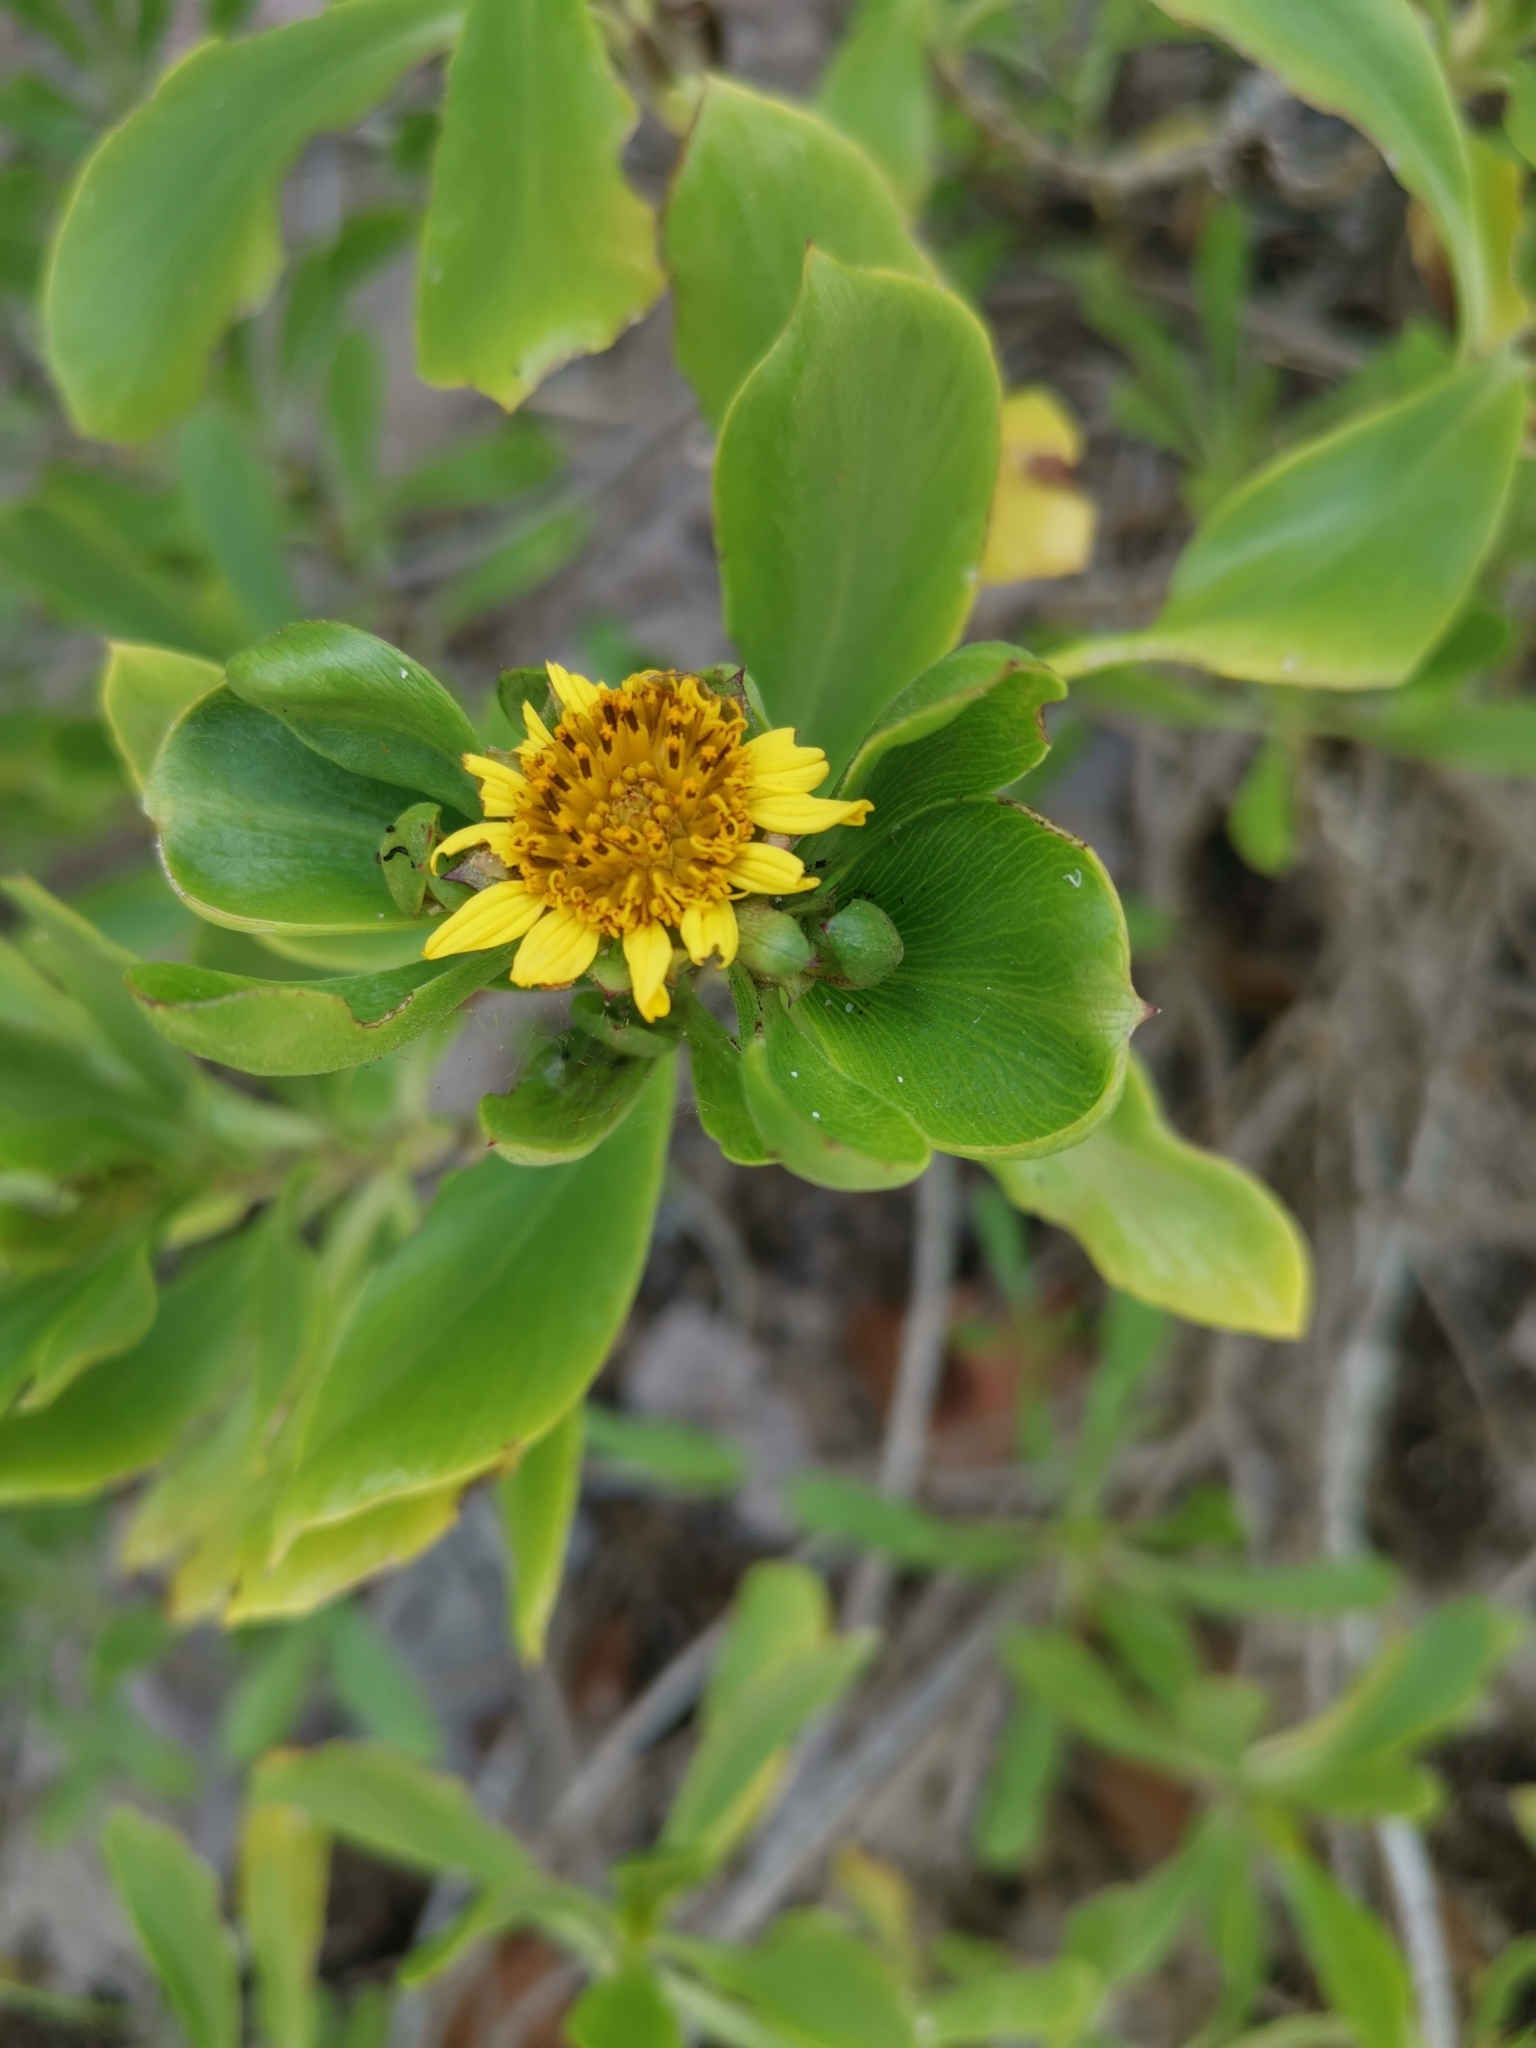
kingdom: Plantae
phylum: Tracheophyta
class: Magnoliopsida
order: Asterales
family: Asteraceae
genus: Borrichia
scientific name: Borrichia arborescens
